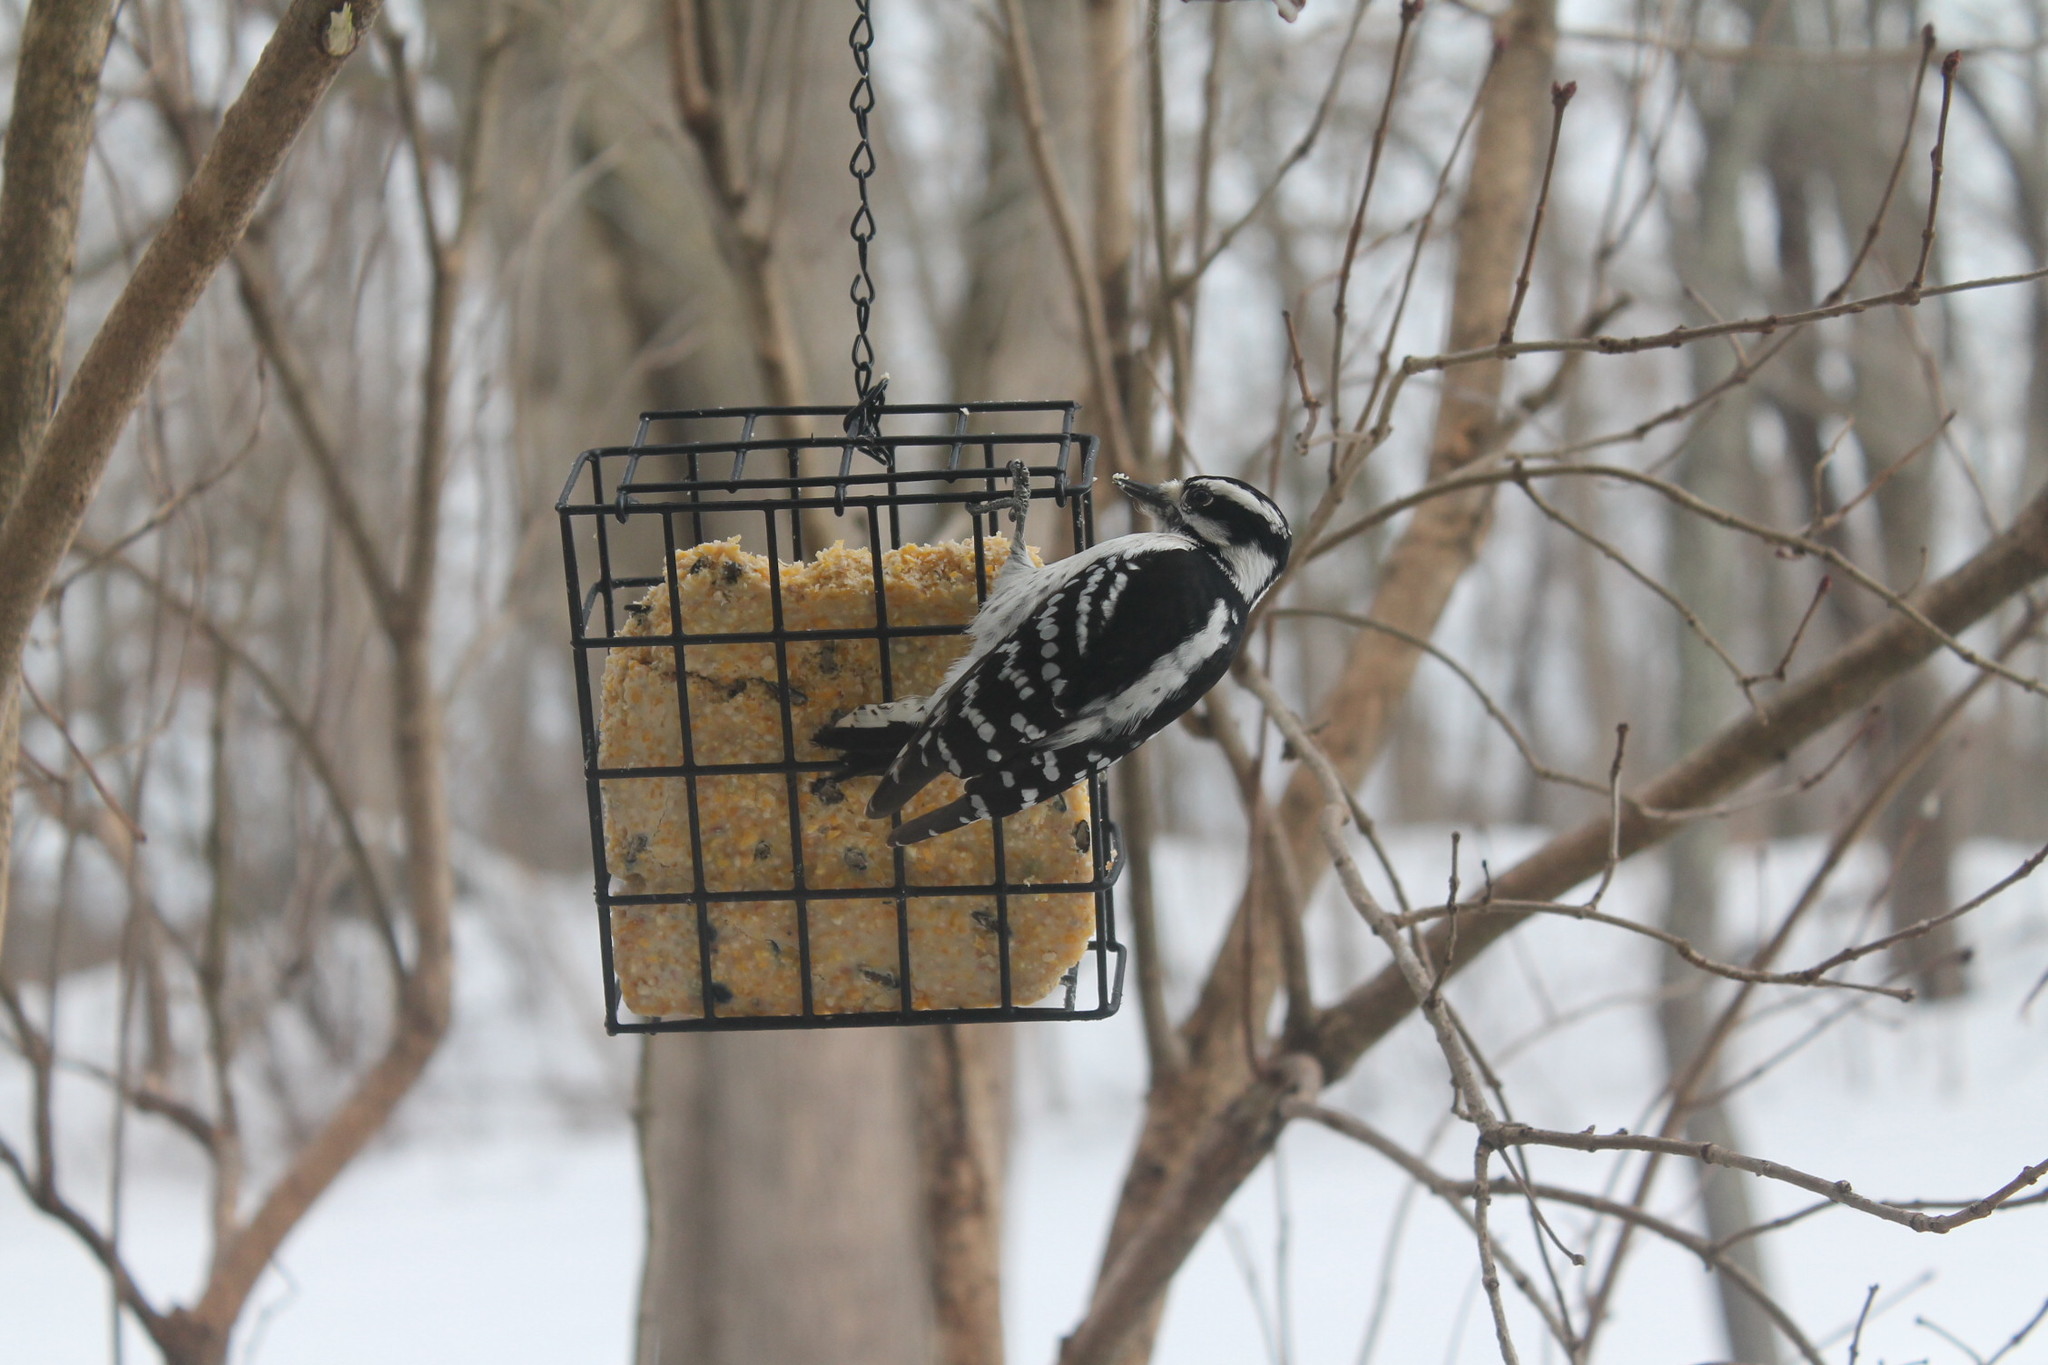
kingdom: Animalia
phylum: Chordata
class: Aves
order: Piciformes
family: Picidae
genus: Dryobates
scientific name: Dryobates pubescens
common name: Downy woodpecker
